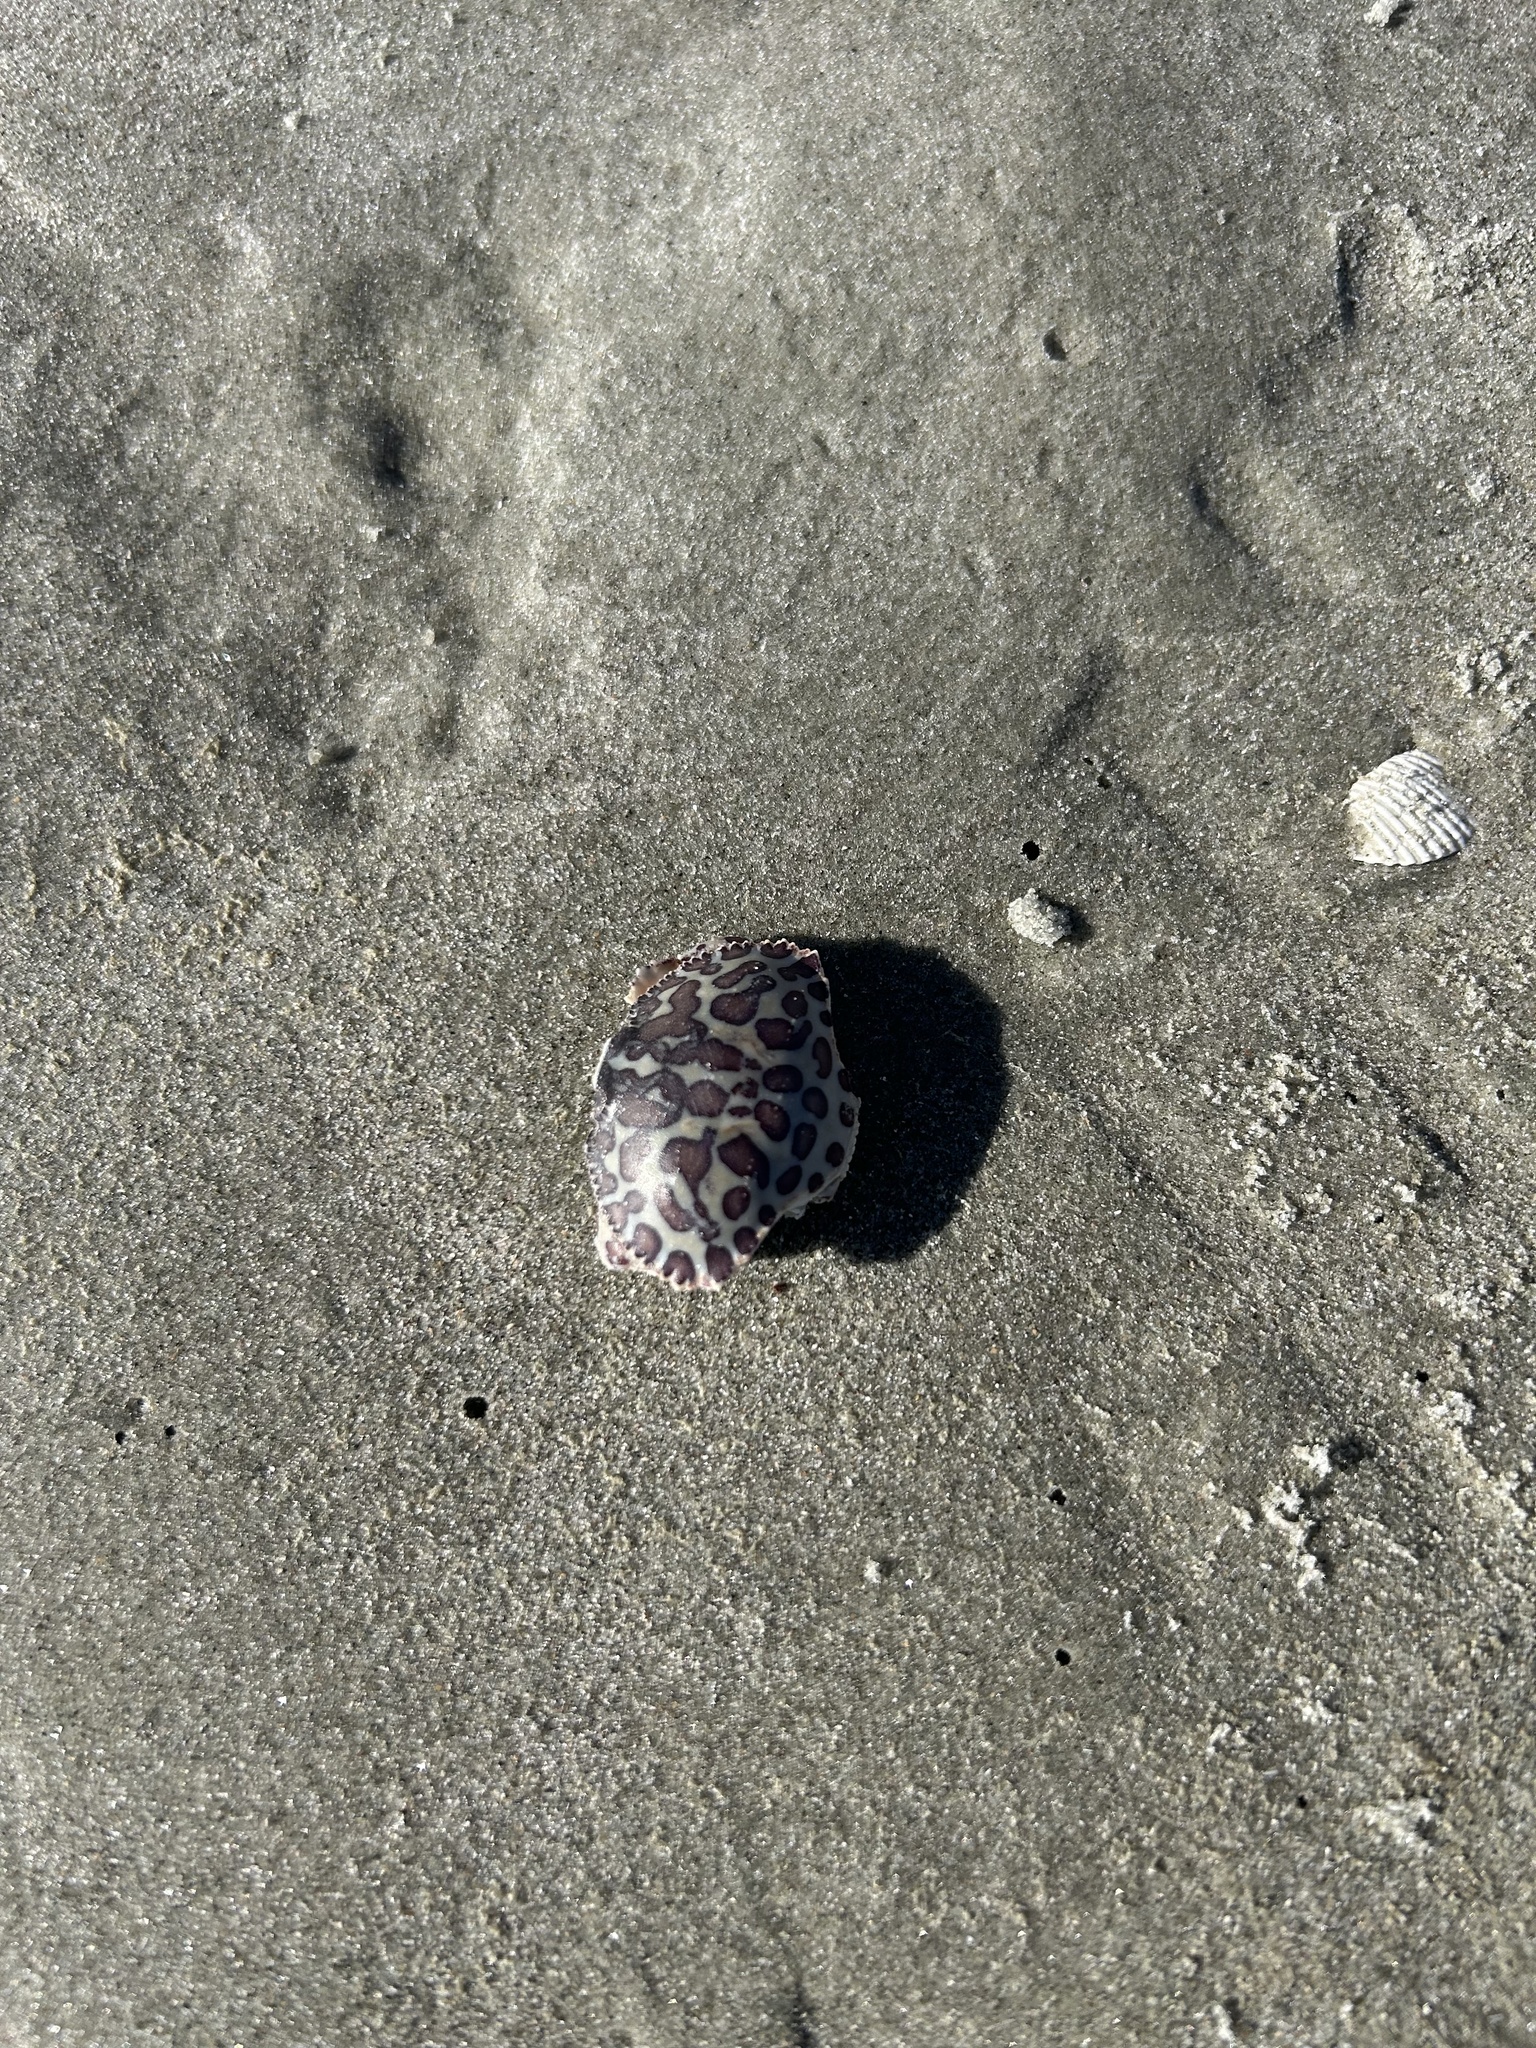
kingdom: Animalia
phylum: Arthropoda
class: Malacostraca
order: Decapoda
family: Aethridae
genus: Hepatus
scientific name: Hepatus epheliticus
